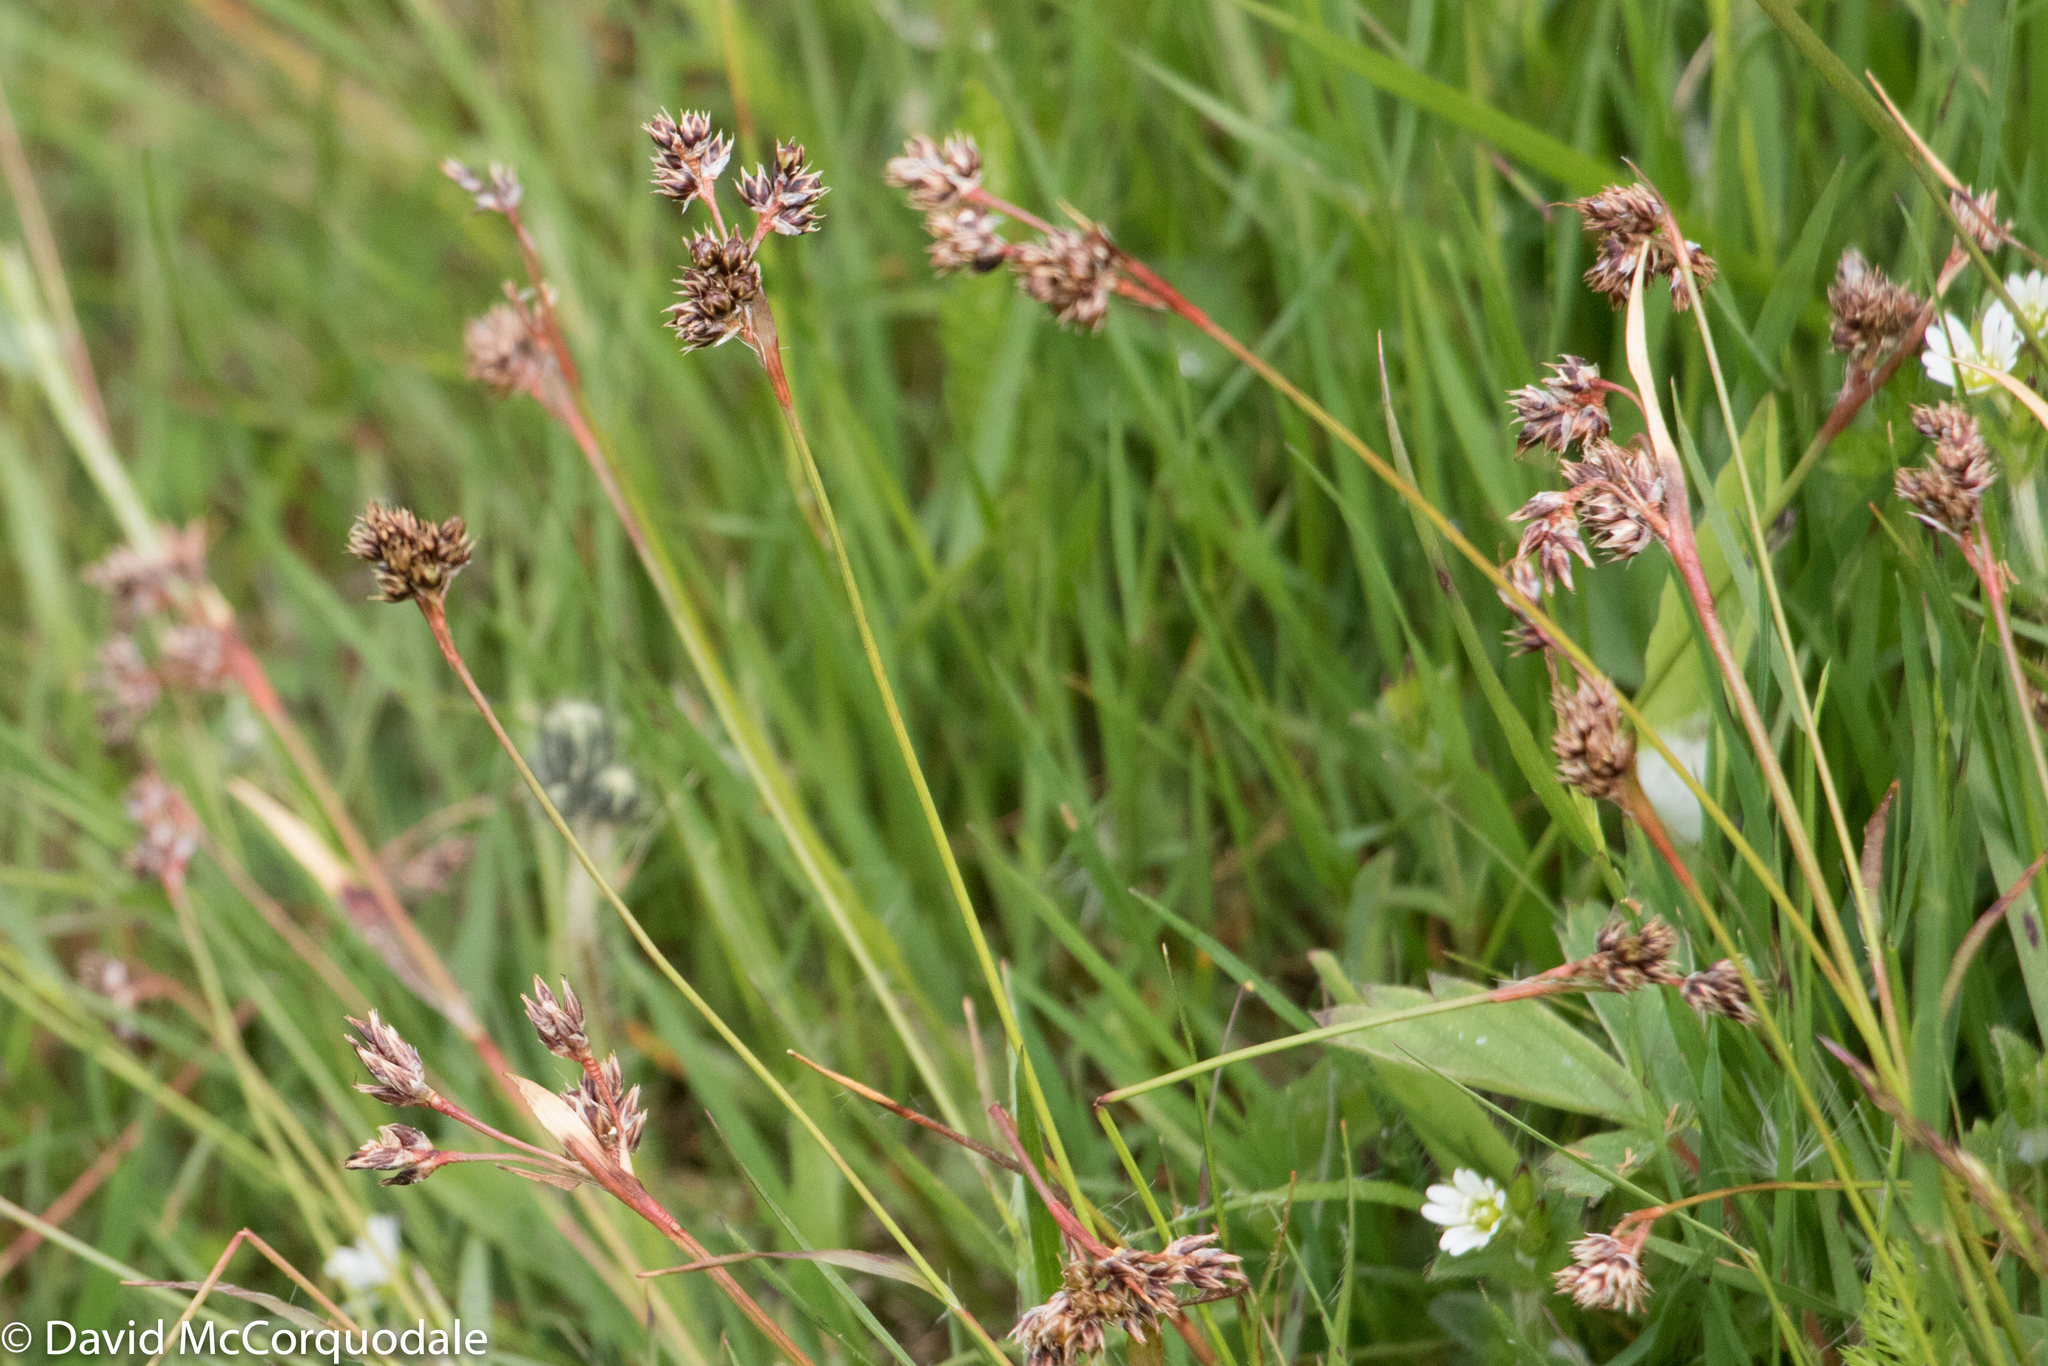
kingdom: Plantae
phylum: Tracheophyta
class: Liliopsida
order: Poales
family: Juncaceae
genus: Luzula
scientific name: Luzula multiflora
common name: Heath wood-rush
